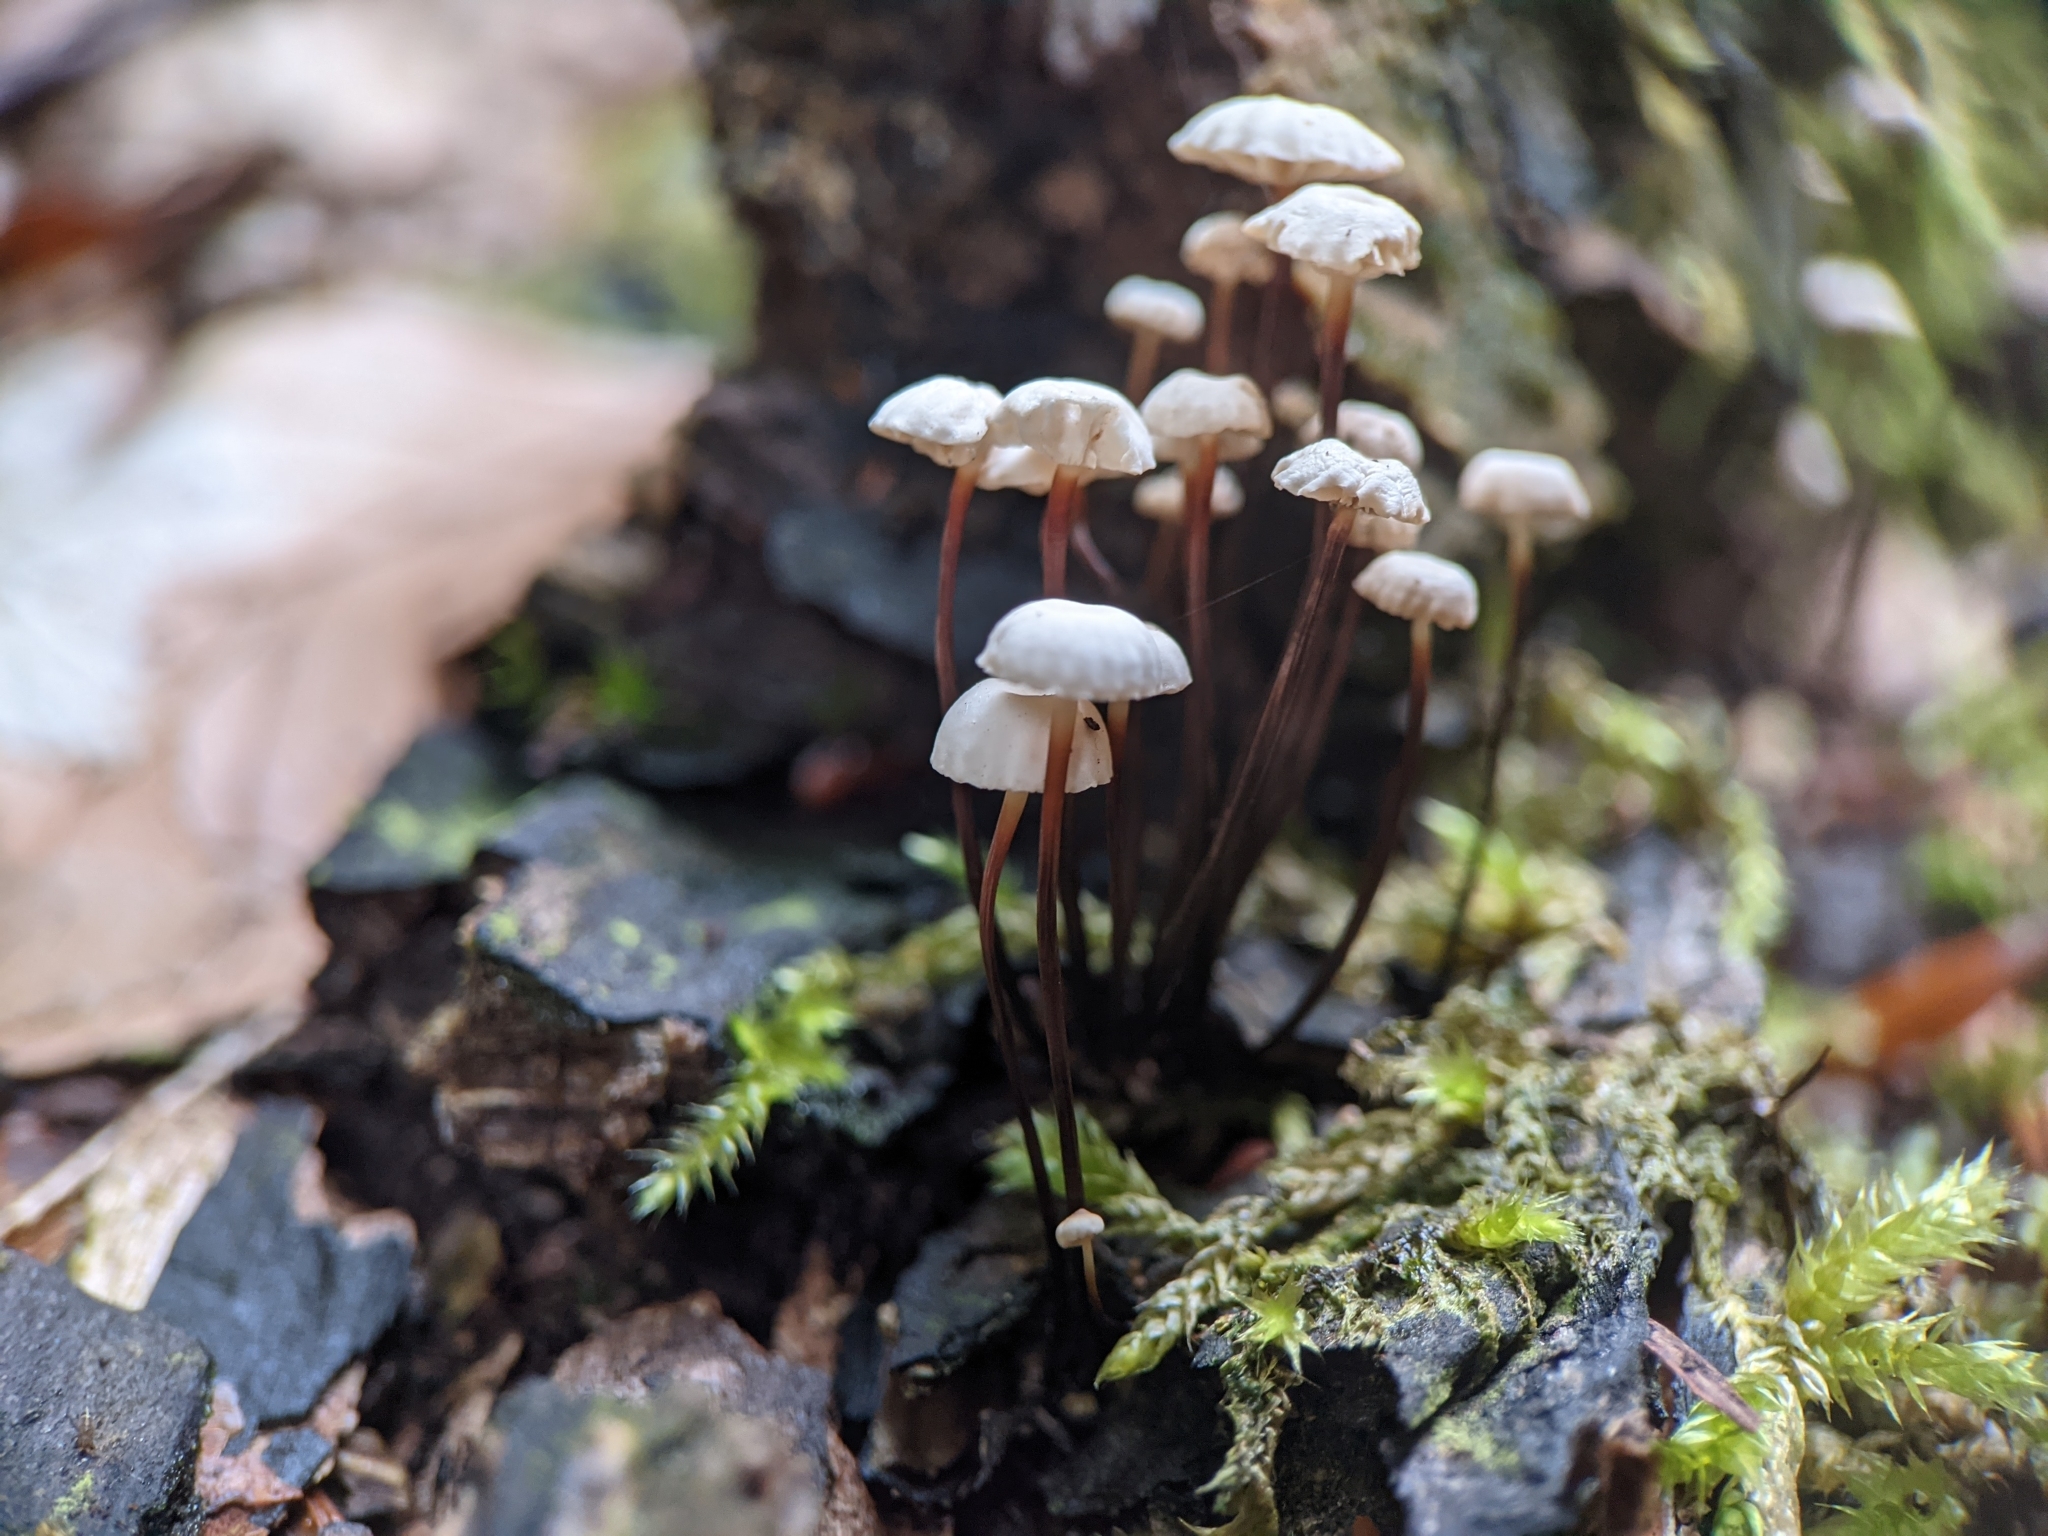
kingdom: Fungi
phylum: Basidiomycota
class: Agaricomycetes
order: Agaricales
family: Marasmiaceae
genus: Marasmius
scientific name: Marasmius rotula
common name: Collared parachute
